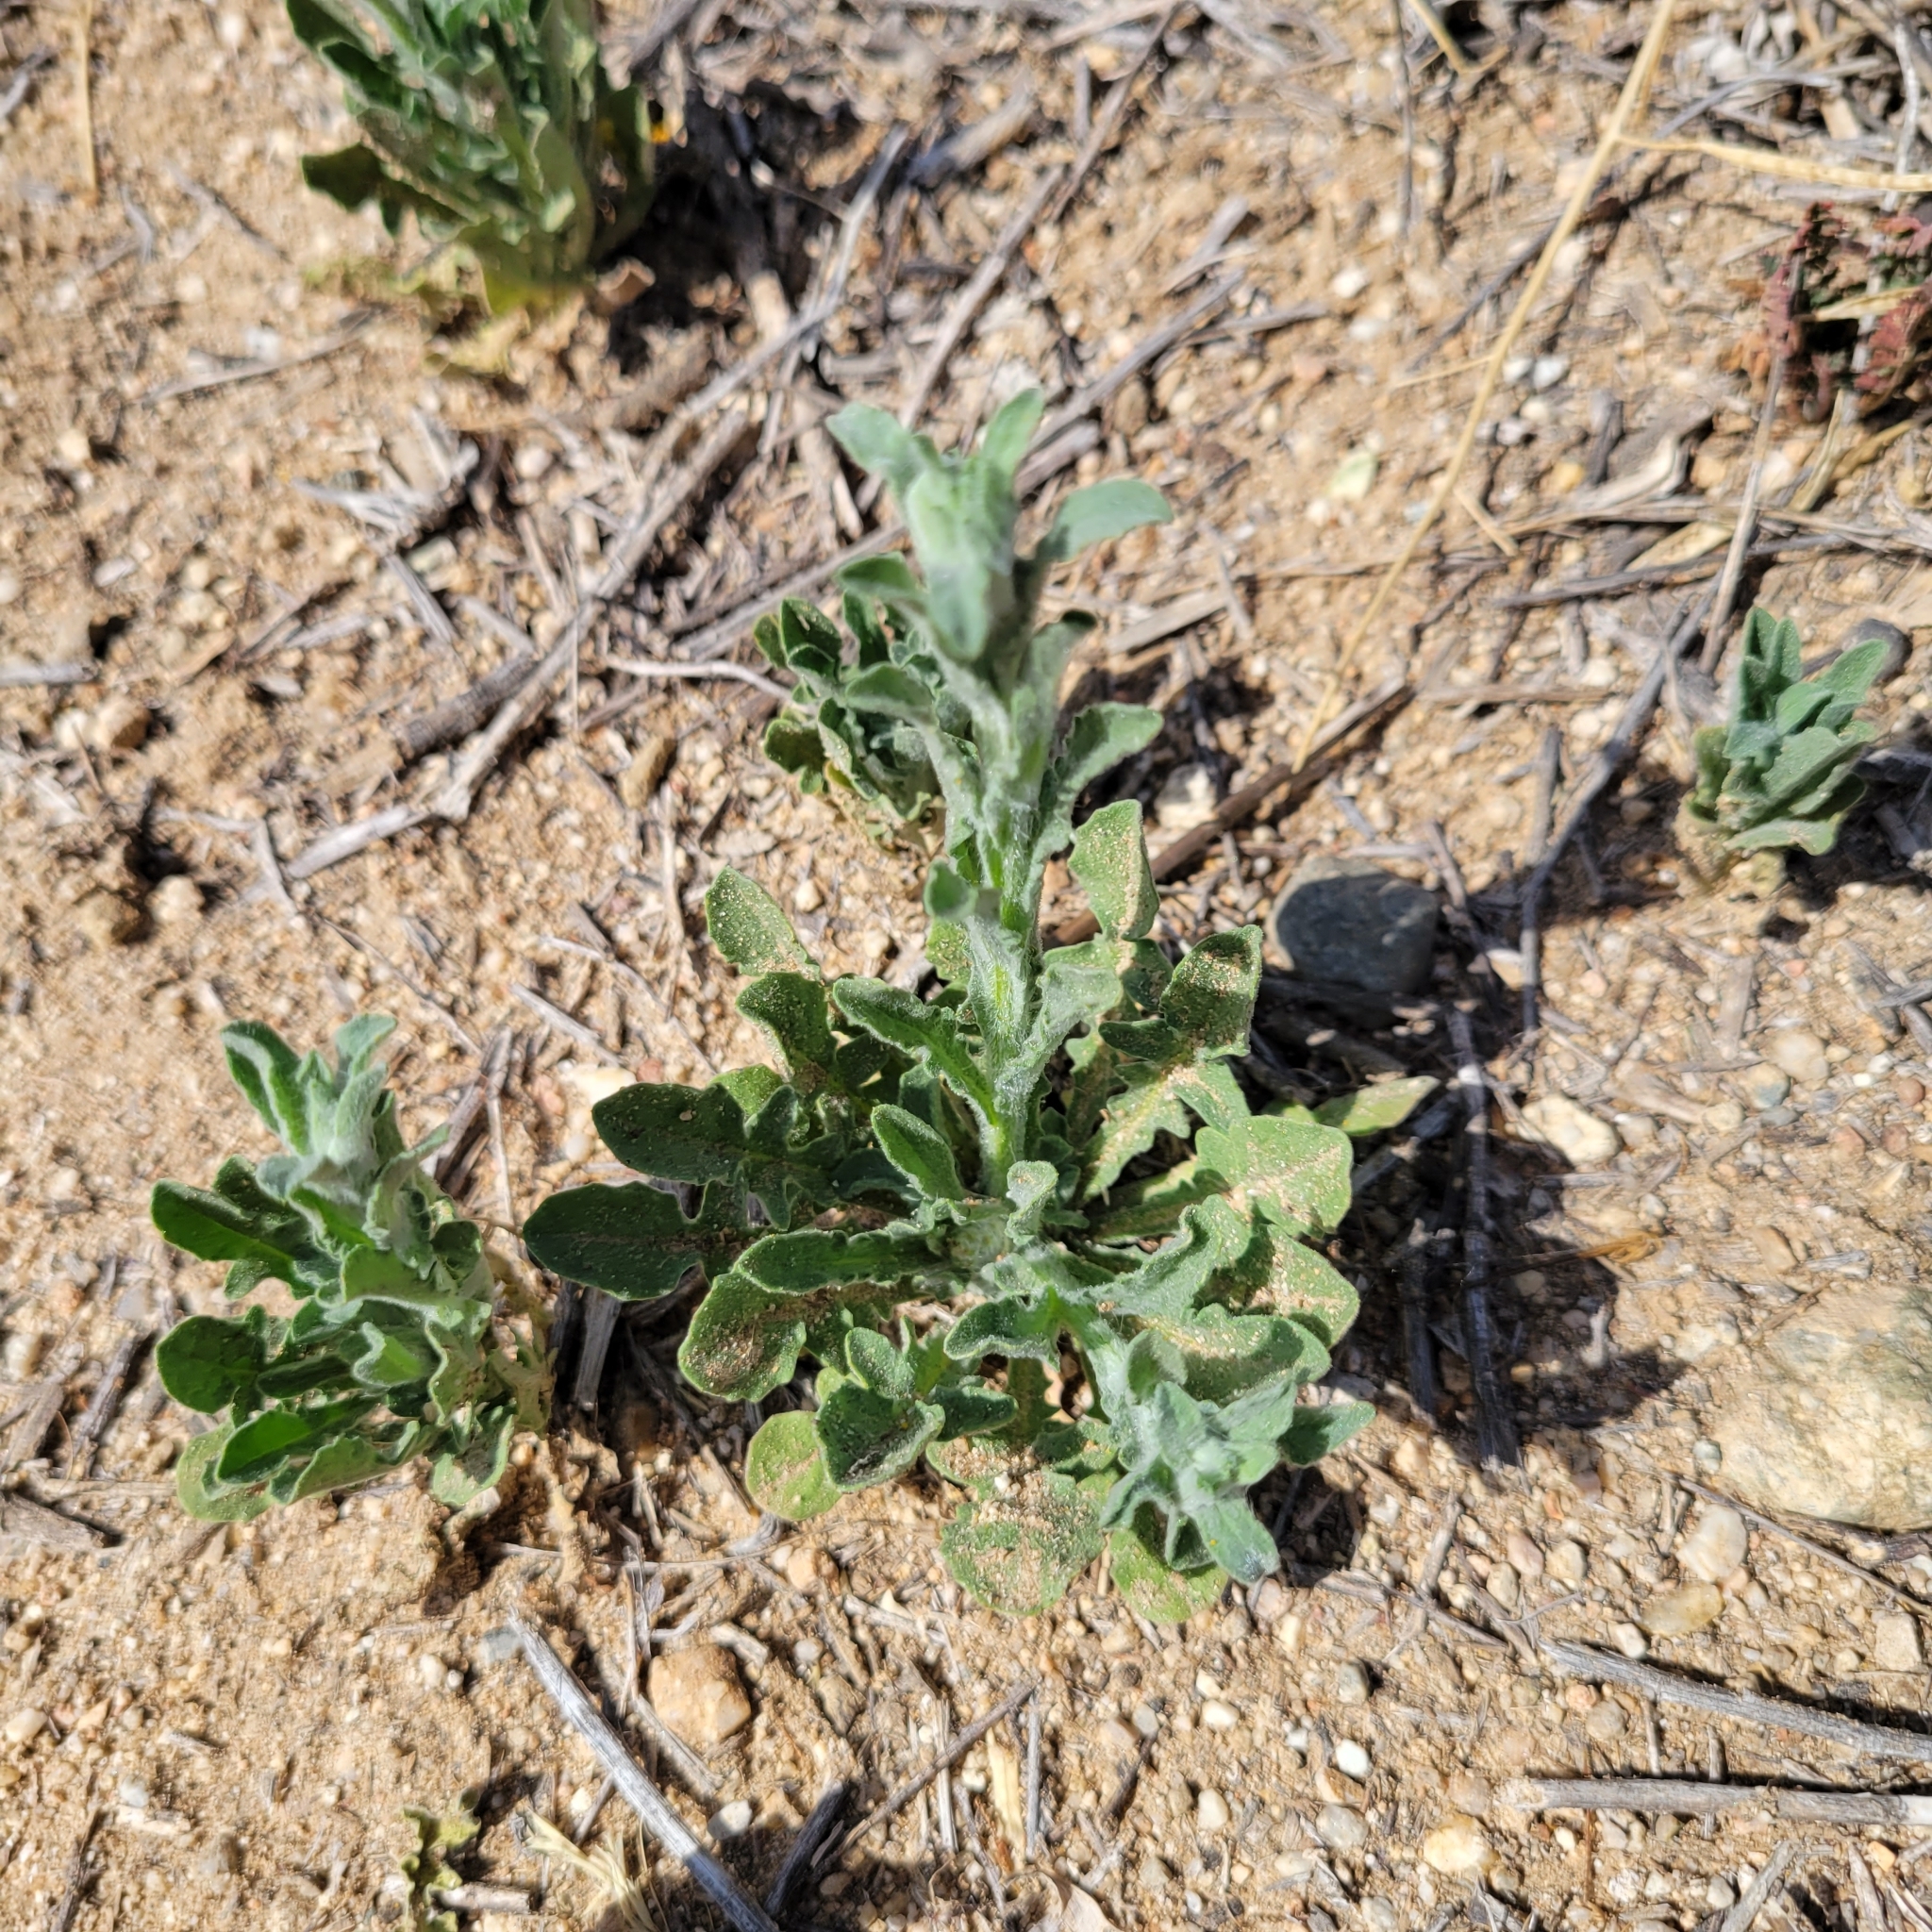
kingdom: Plantae
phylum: Tracheophyta
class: Magnoliopsida
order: Asterales
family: Asteraceae
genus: Centaurea
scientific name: Centaurea melitensis
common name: Maltese star-thistle
